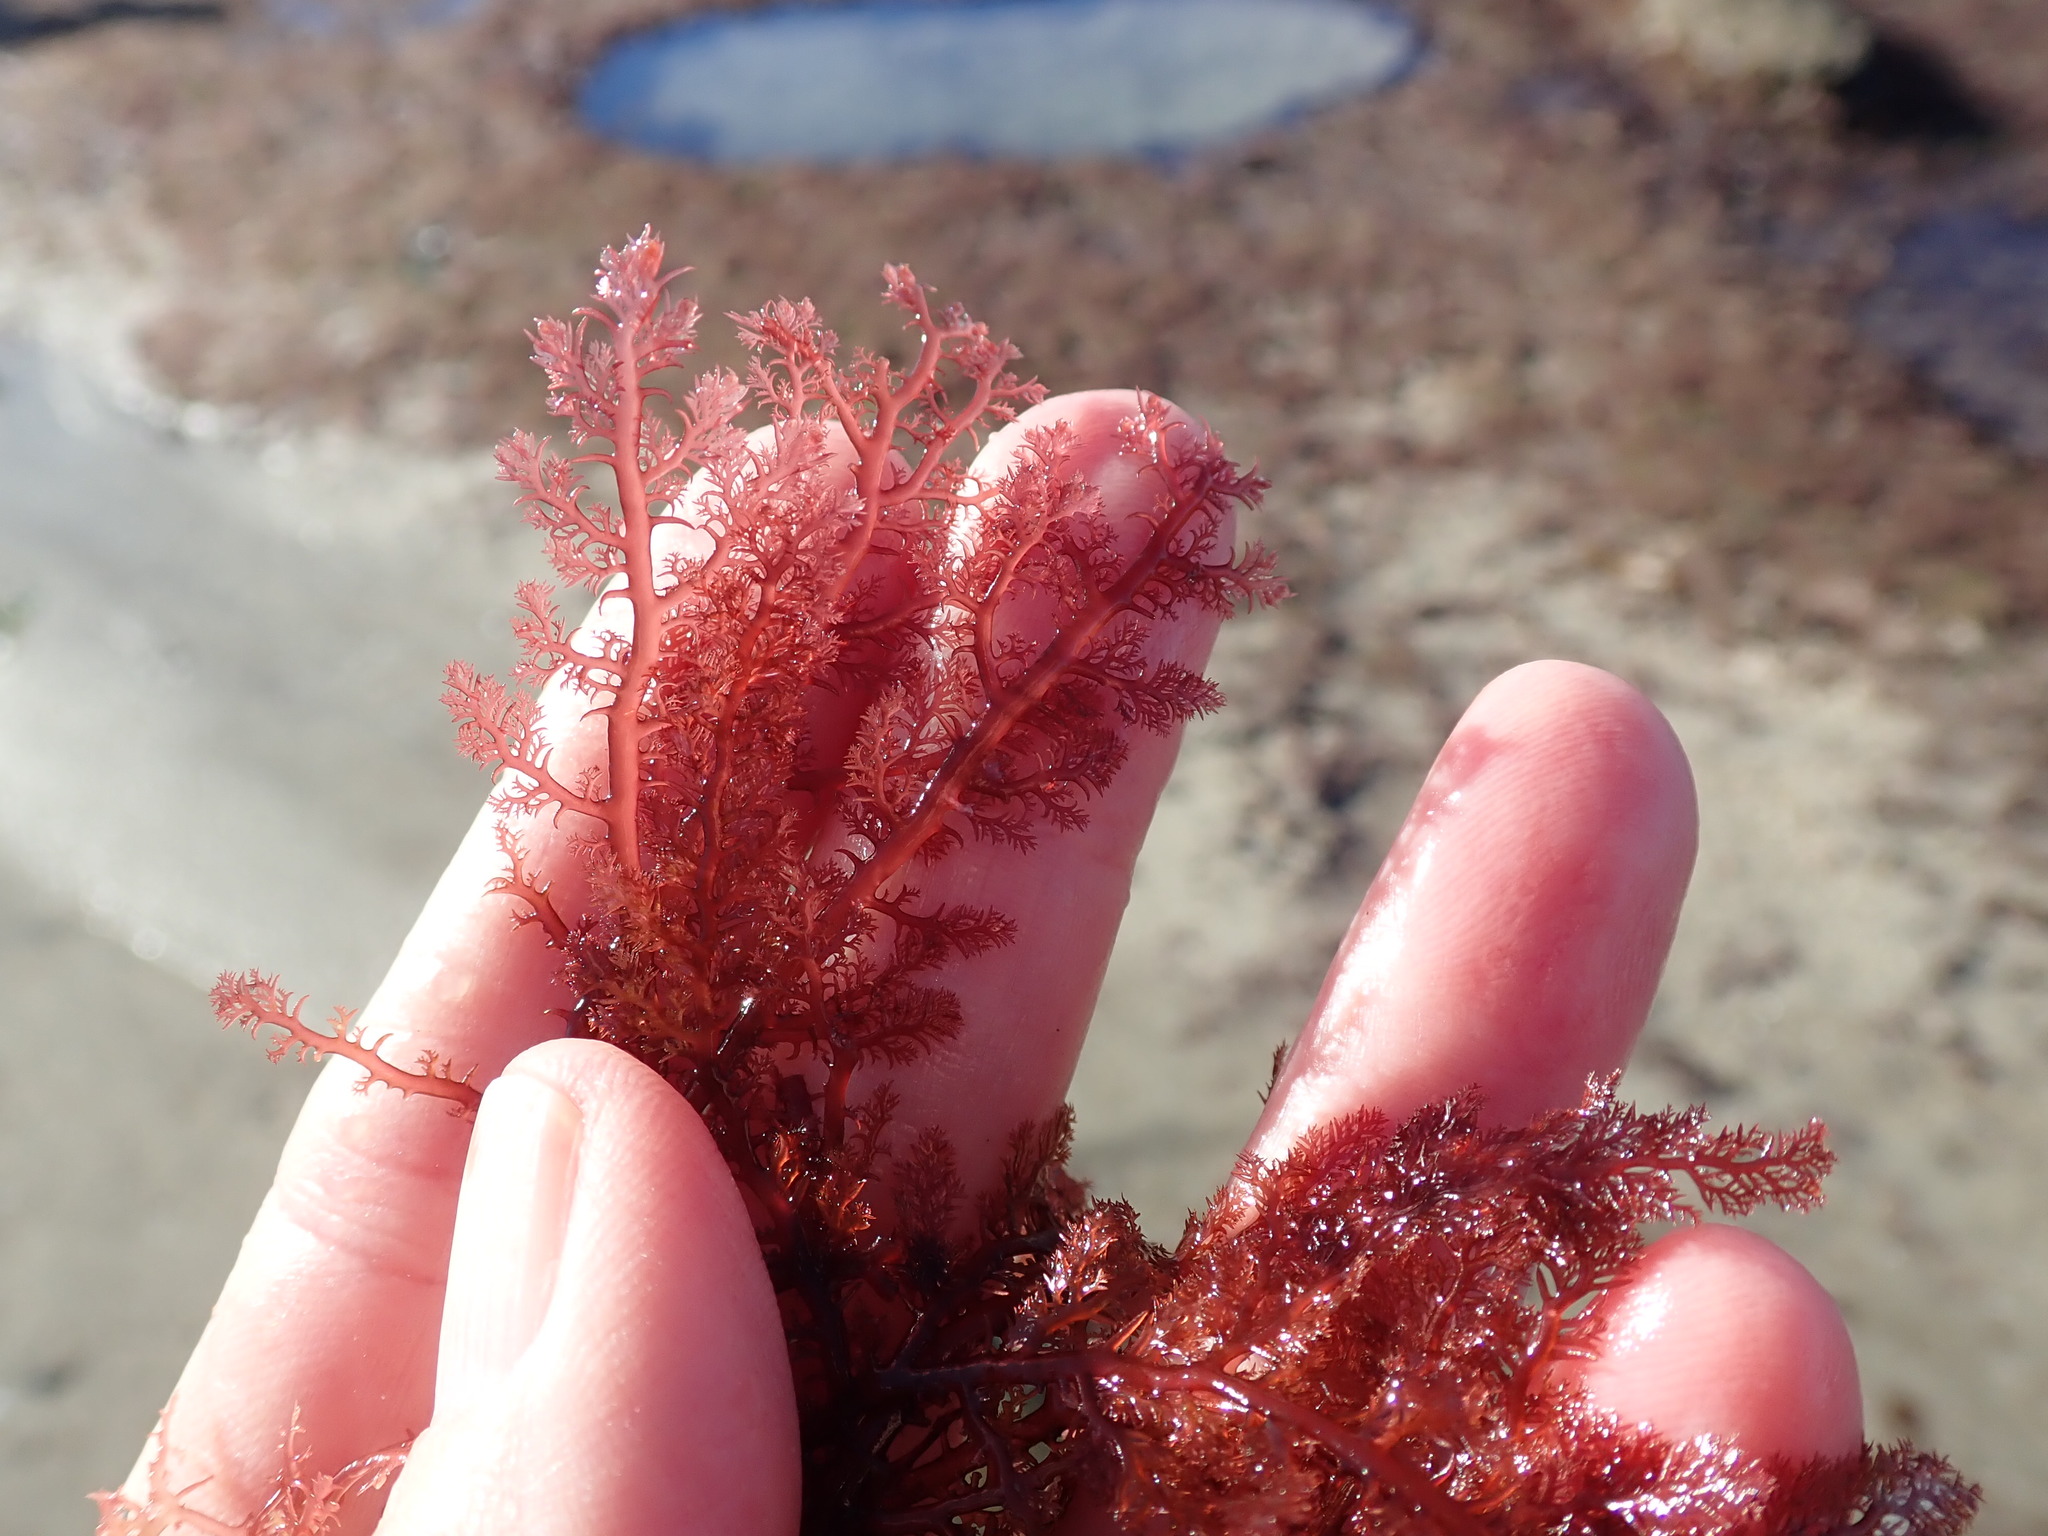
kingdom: Plantae
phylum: Rhodophyta
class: Florideophyceae
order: Plocamiales
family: Plocamiaceae
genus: Plocamium
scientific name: Plocamium cartilagineum
